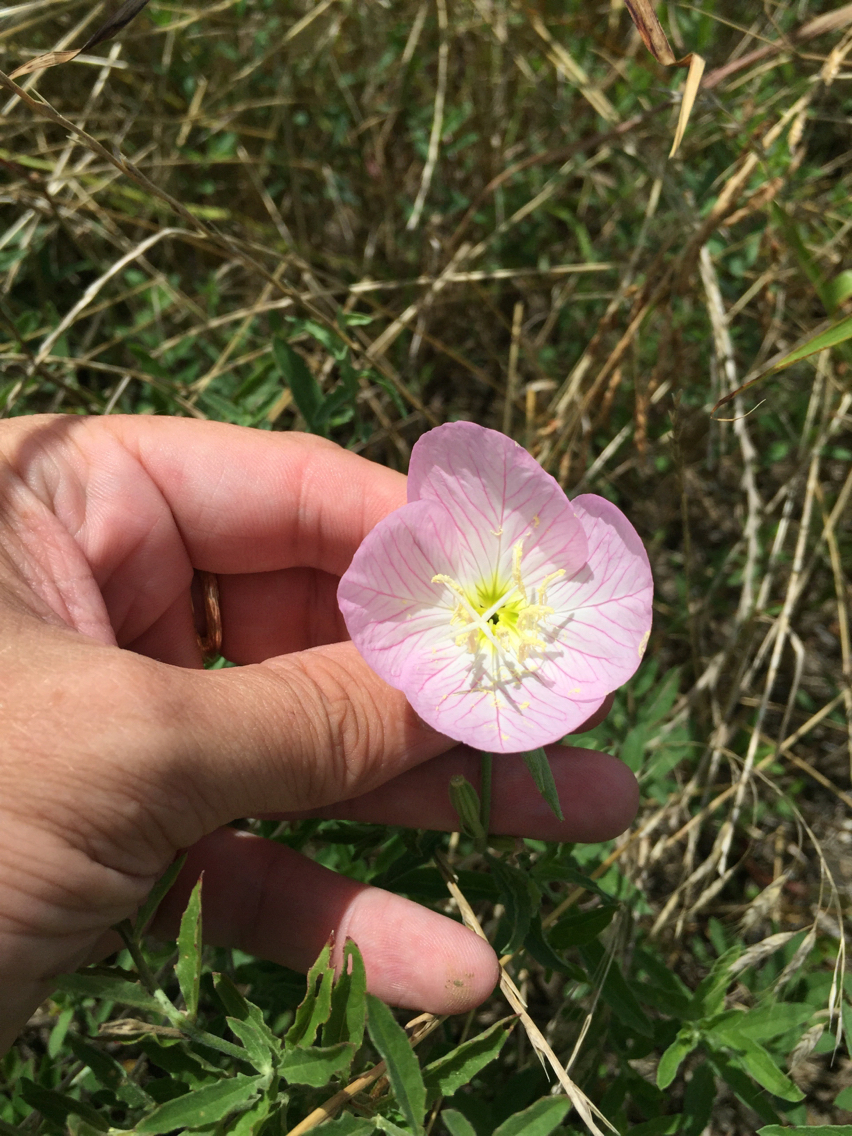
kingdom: Plantae
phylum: Tracheophyta
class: Magnoliopsida
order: Myrtales
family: Onagraceae
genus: Oenothera
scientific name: Oenothera speciosa
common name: White evening-primrose
